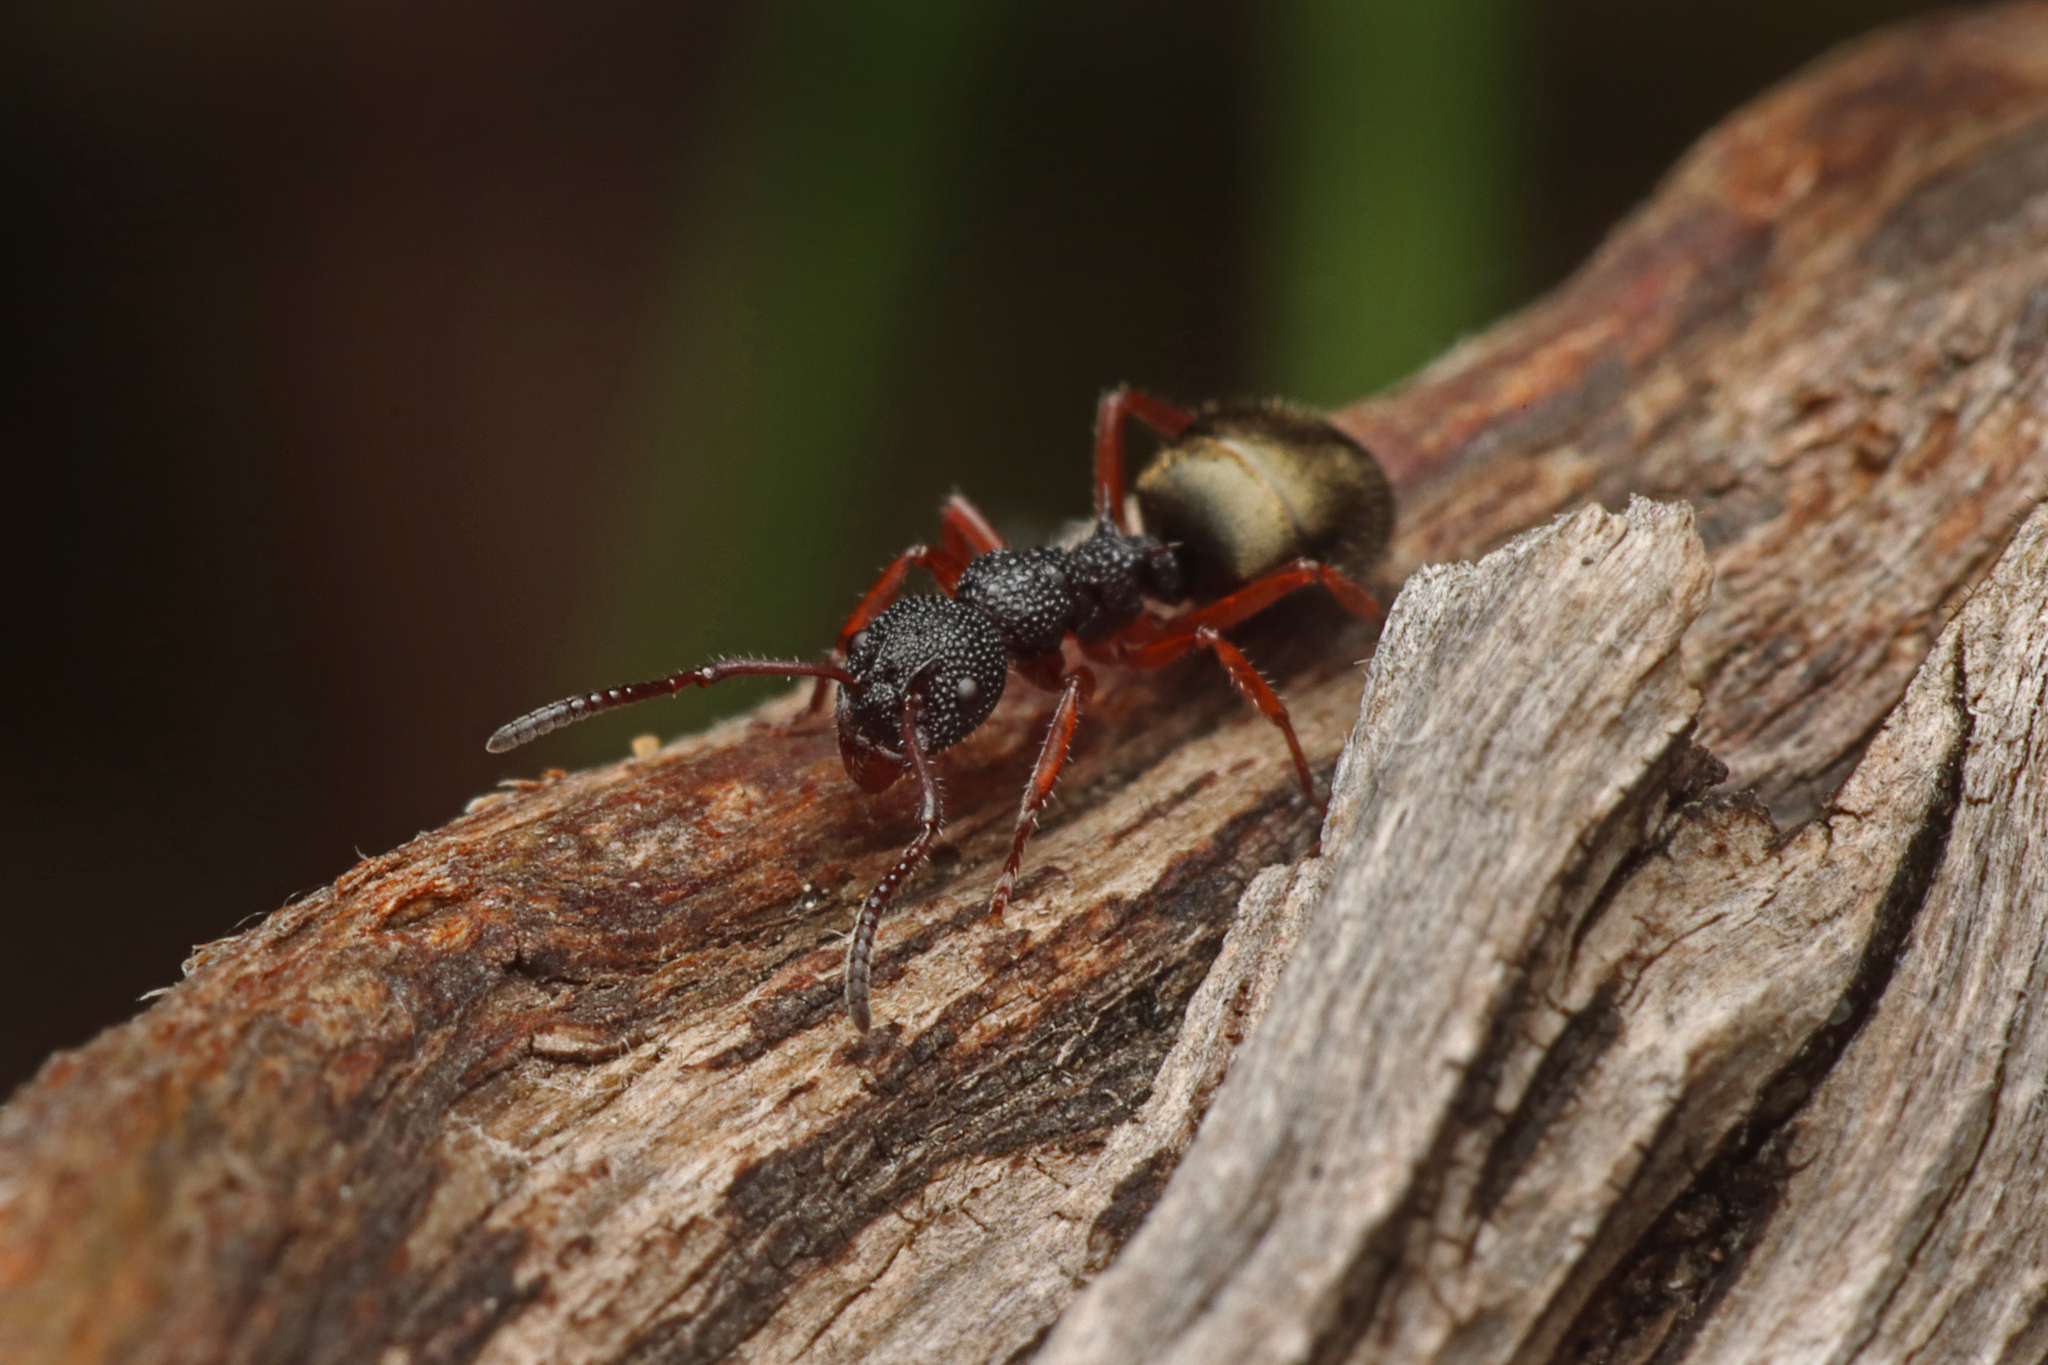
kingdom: Animalia
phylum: Arthropoda
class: Insecta
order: Hymenoptera
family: Formicidae
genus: Dolichoderus
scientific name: Dolichoderus scabridus
